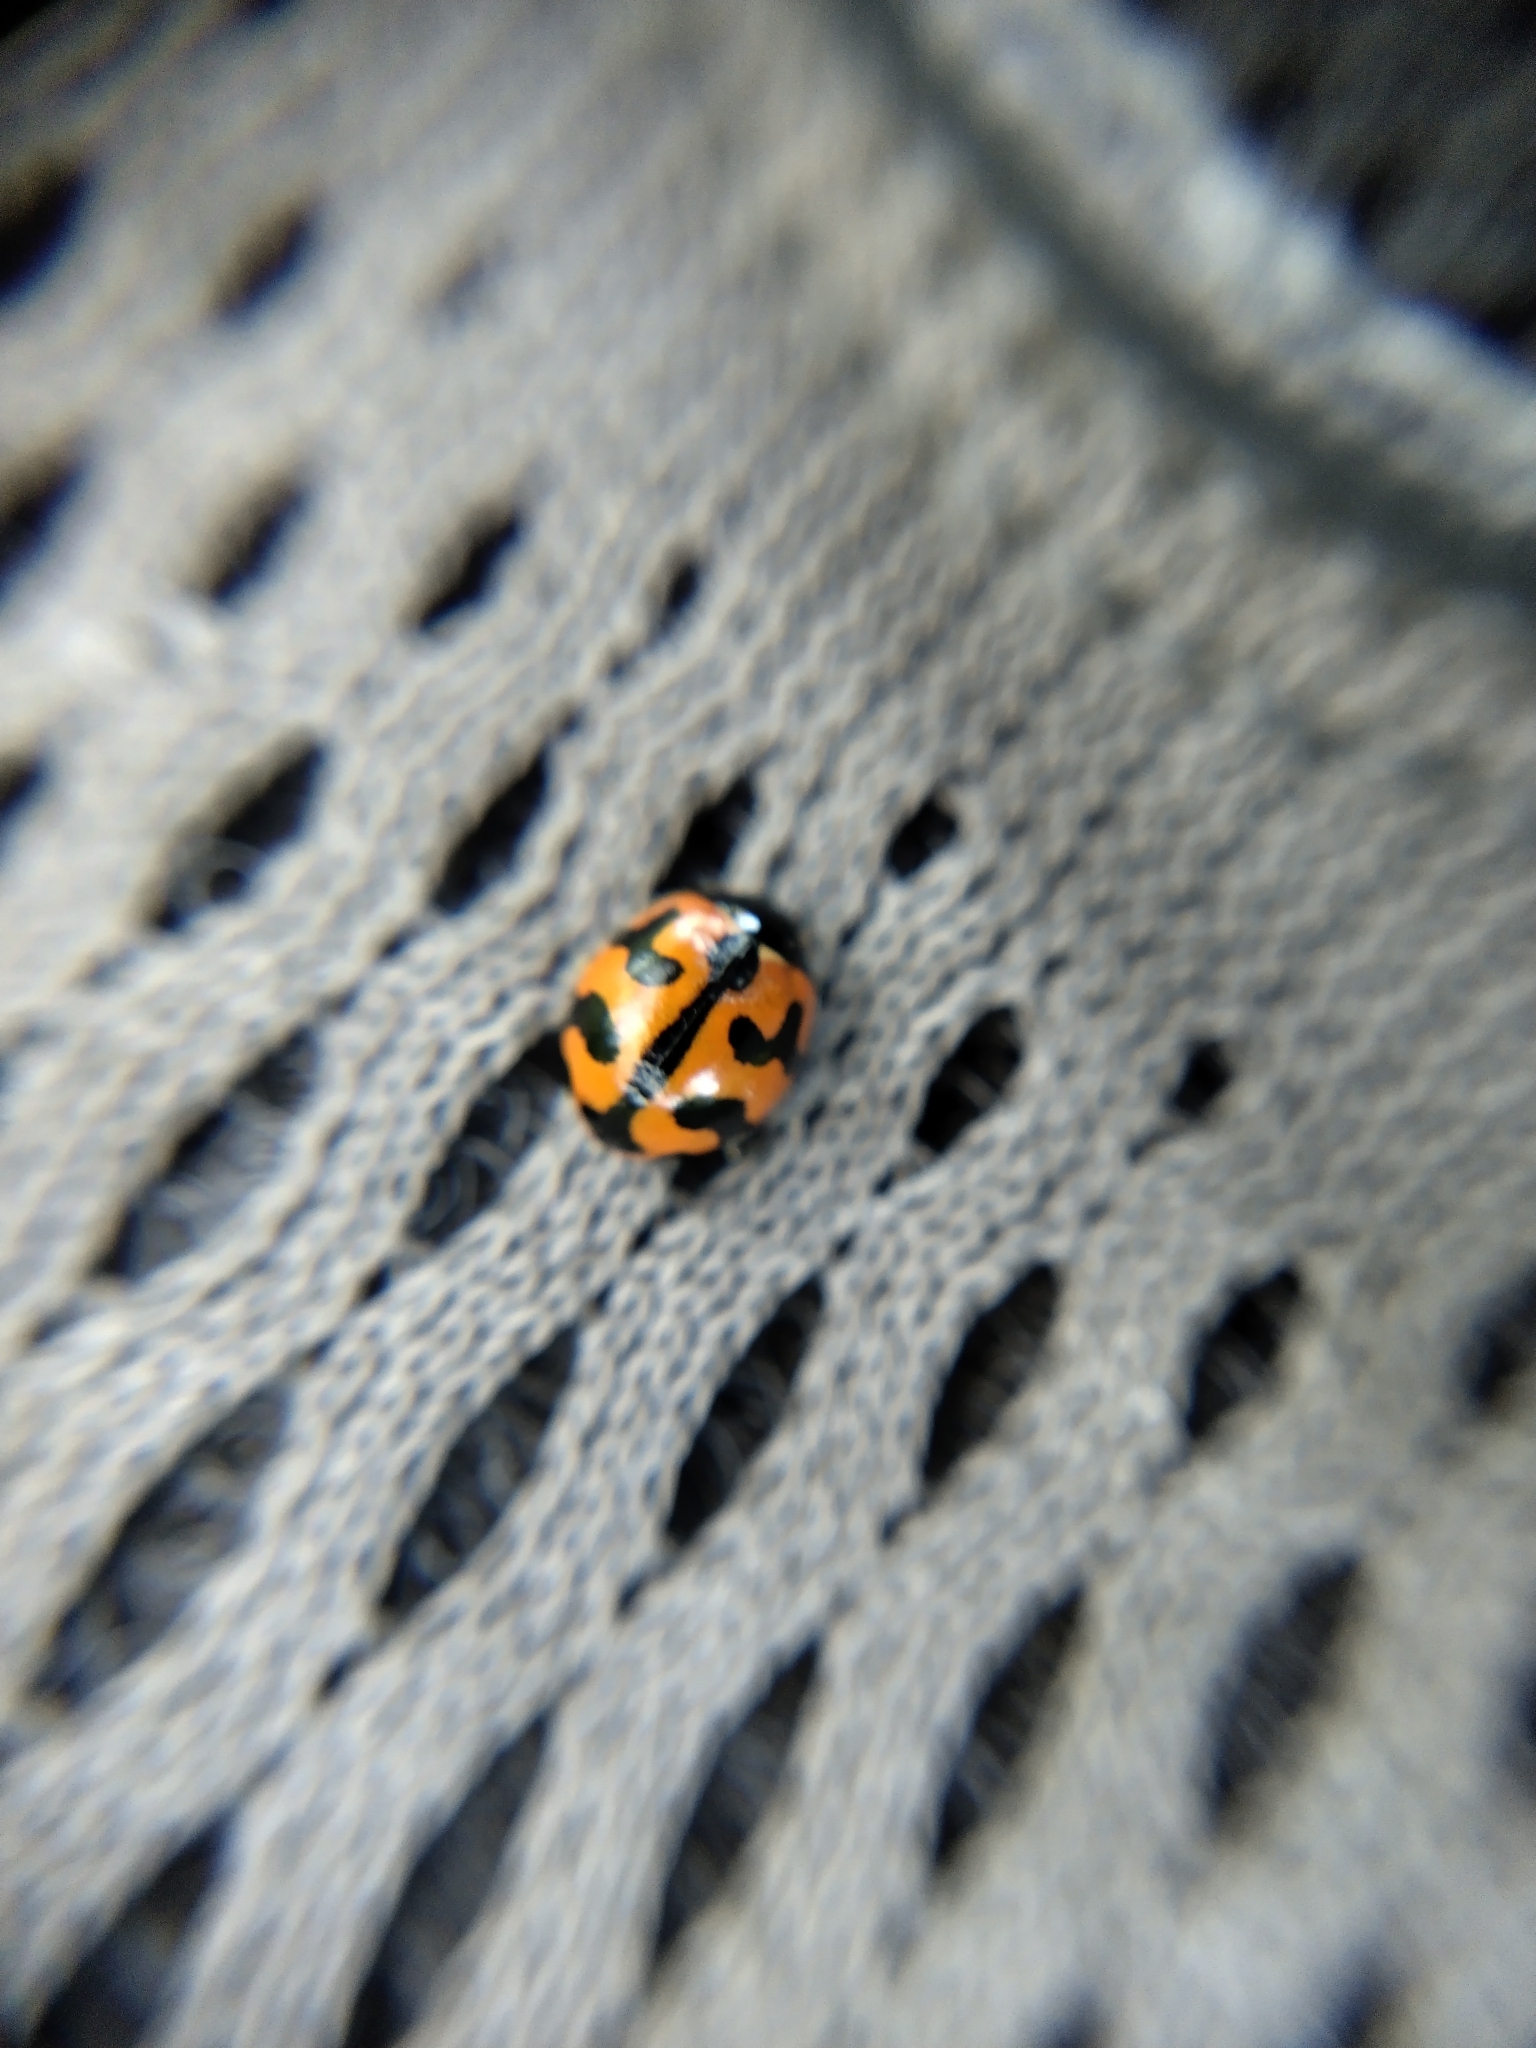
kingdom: Animalia
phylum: Arthropoda
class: Insecta
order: Coleoptera
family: Coccinellidae
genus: Coccinella
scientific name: Coccinella transversalis
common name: Transverse lady beetle
